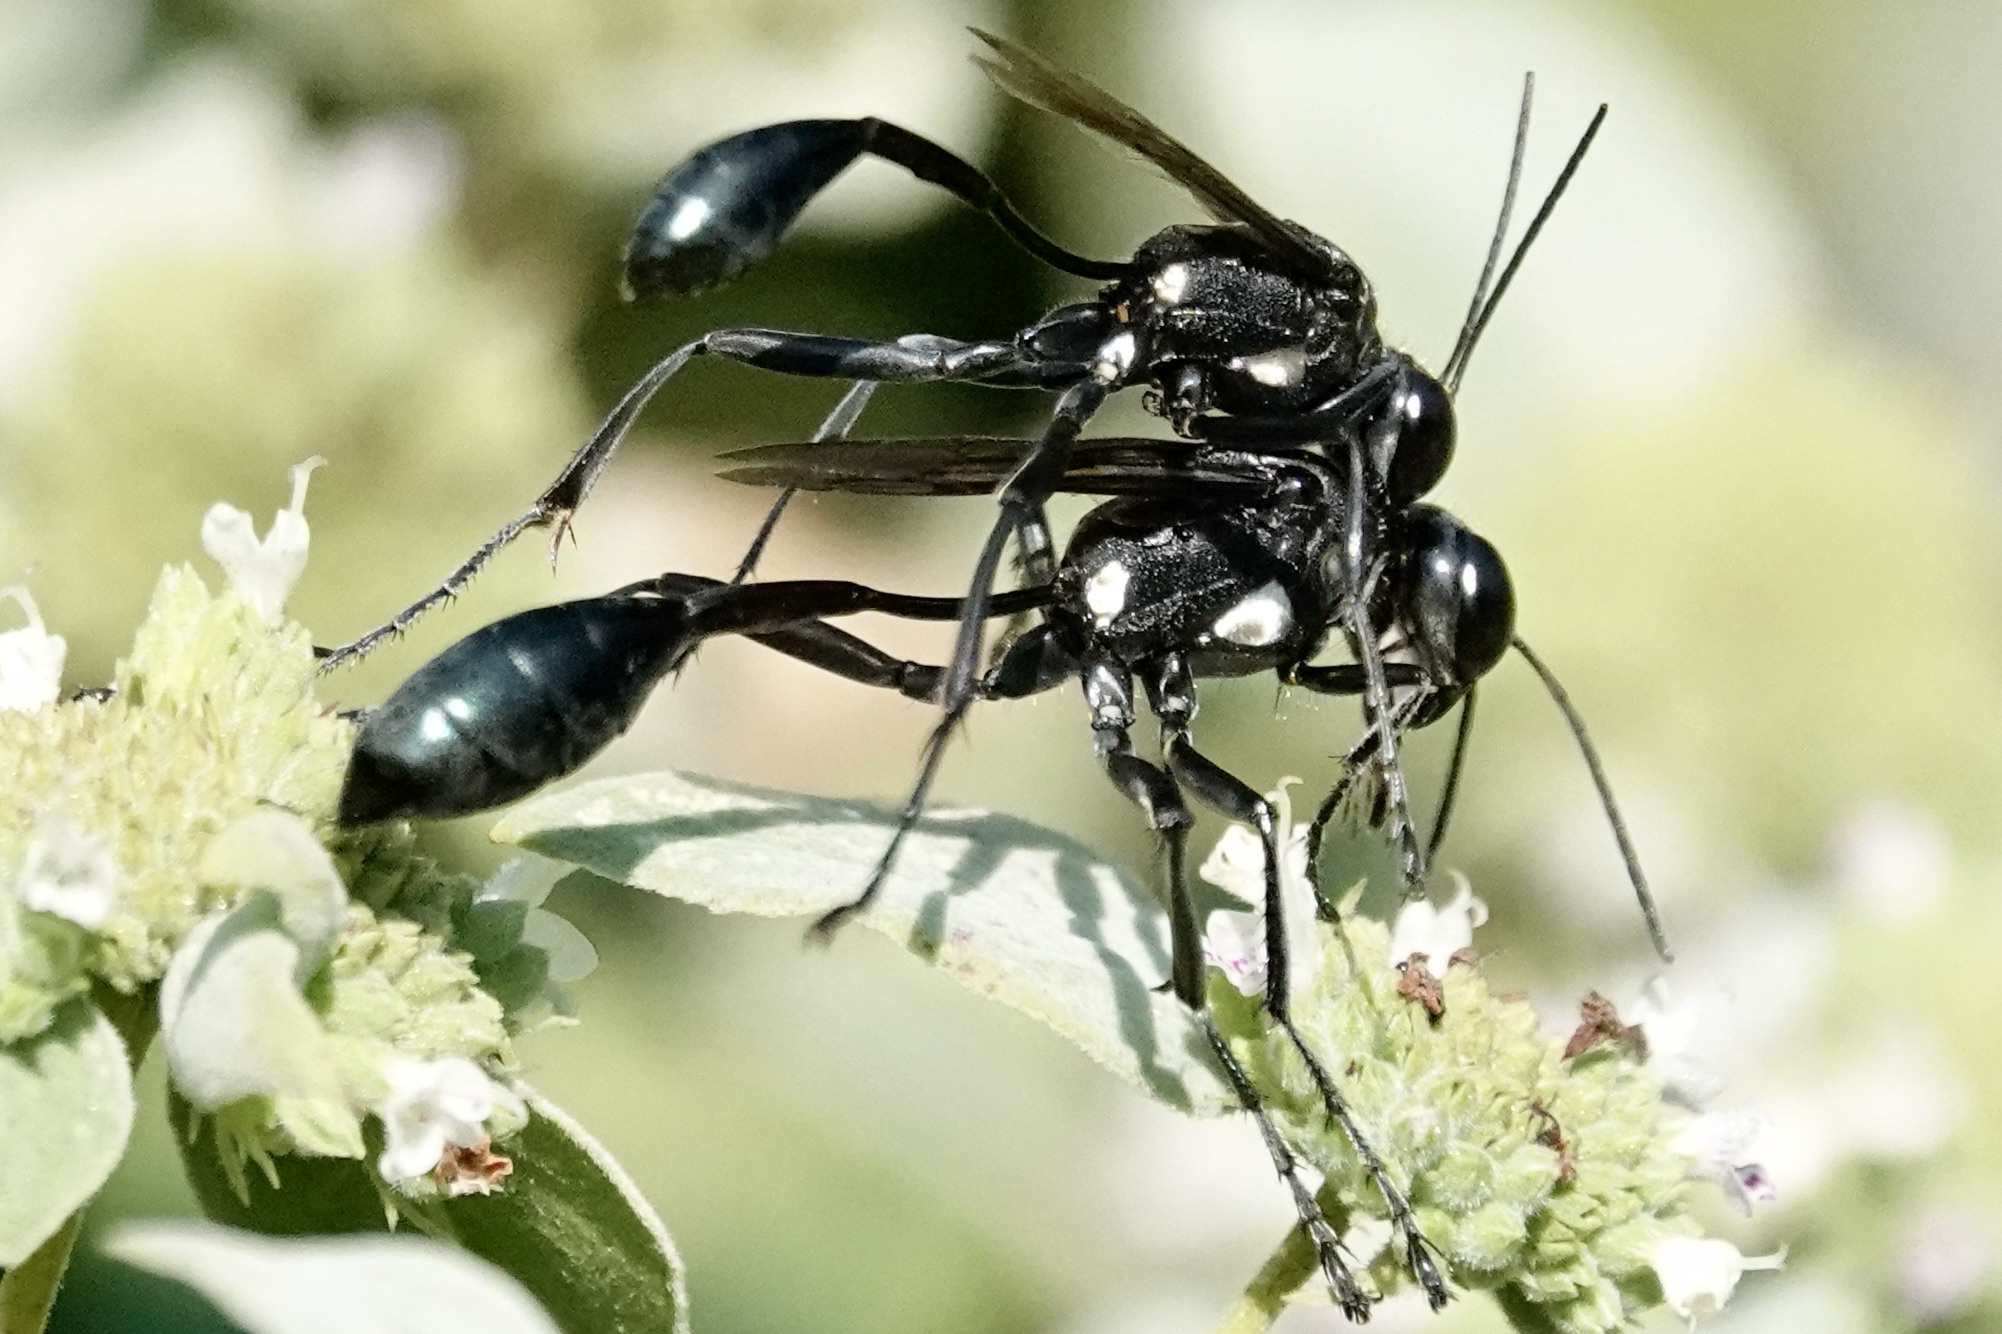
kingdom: Animalia
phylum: Arthropoda
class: Insecta
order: Hymenoptera
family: Sphecidae
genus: Eremnophila
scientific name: Eremnophila aureonotata
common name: Gold-marked thread-waisted wasp
